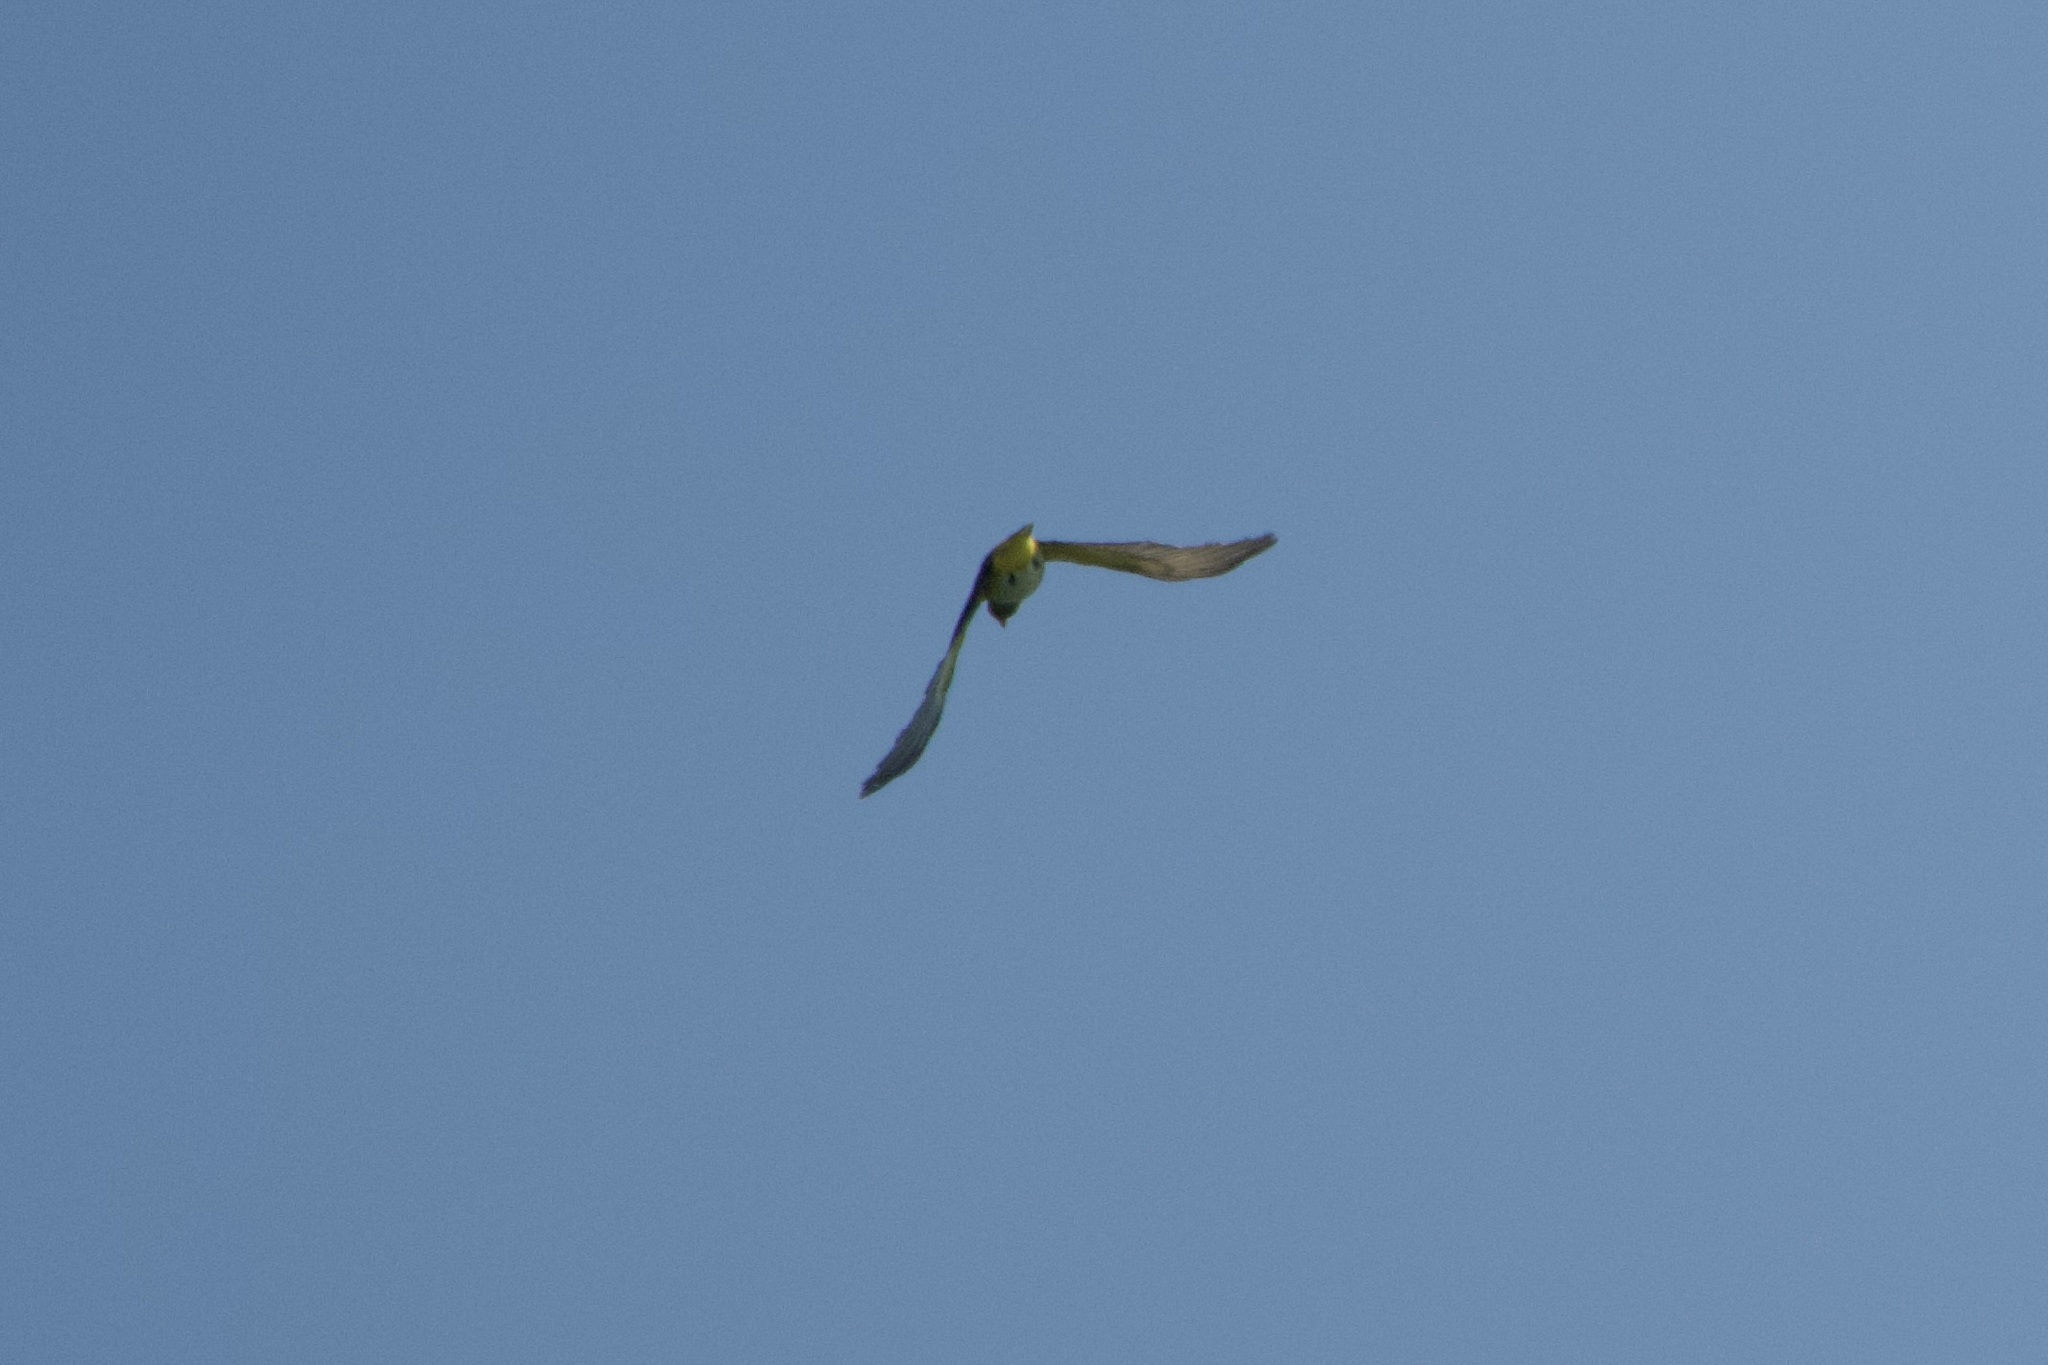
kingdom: Animalia
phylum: Chordata
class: Aves
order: Passeriformes
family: Oriolidae
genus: Oriolus
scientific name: Oriolus oriolus
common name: Eurasian golden oriole
